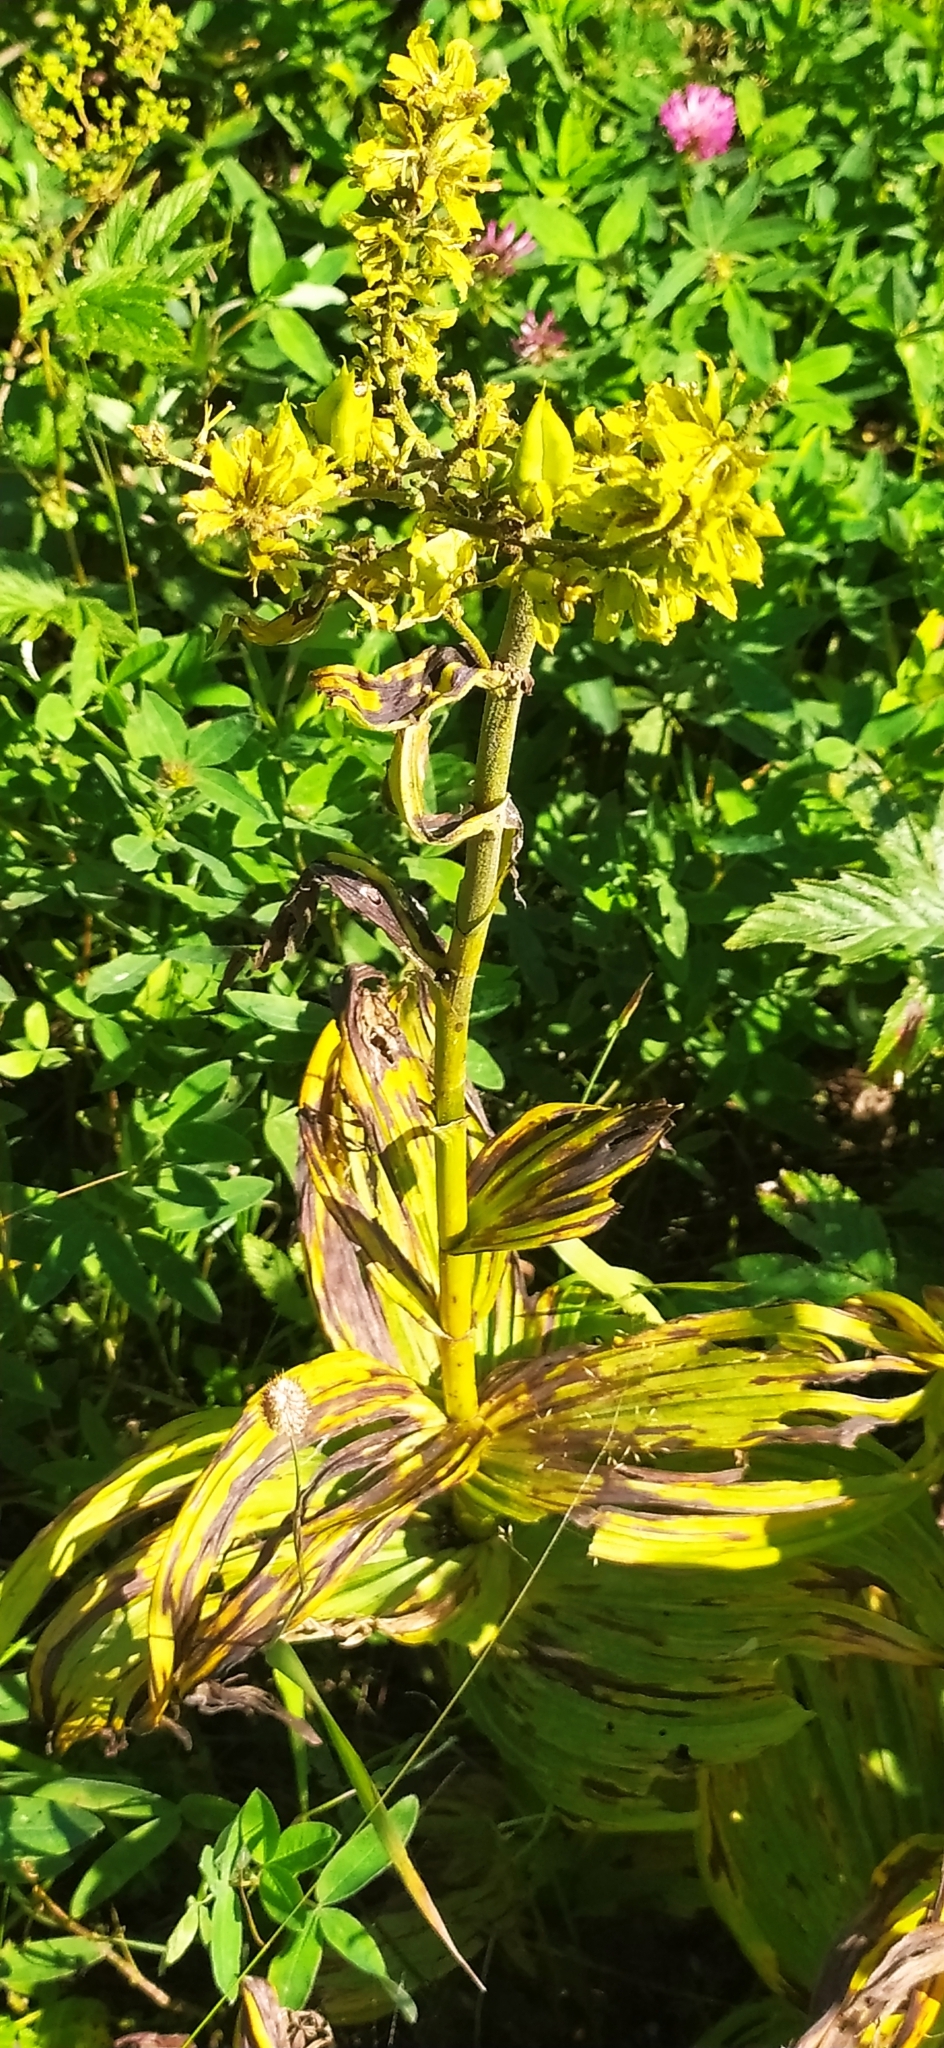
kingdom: Plantae
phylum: Tracheophyta
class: Liliopsida
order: Liliales
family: Melanthiaceae
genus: Veratrum
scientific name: Veratrum lobelianum
